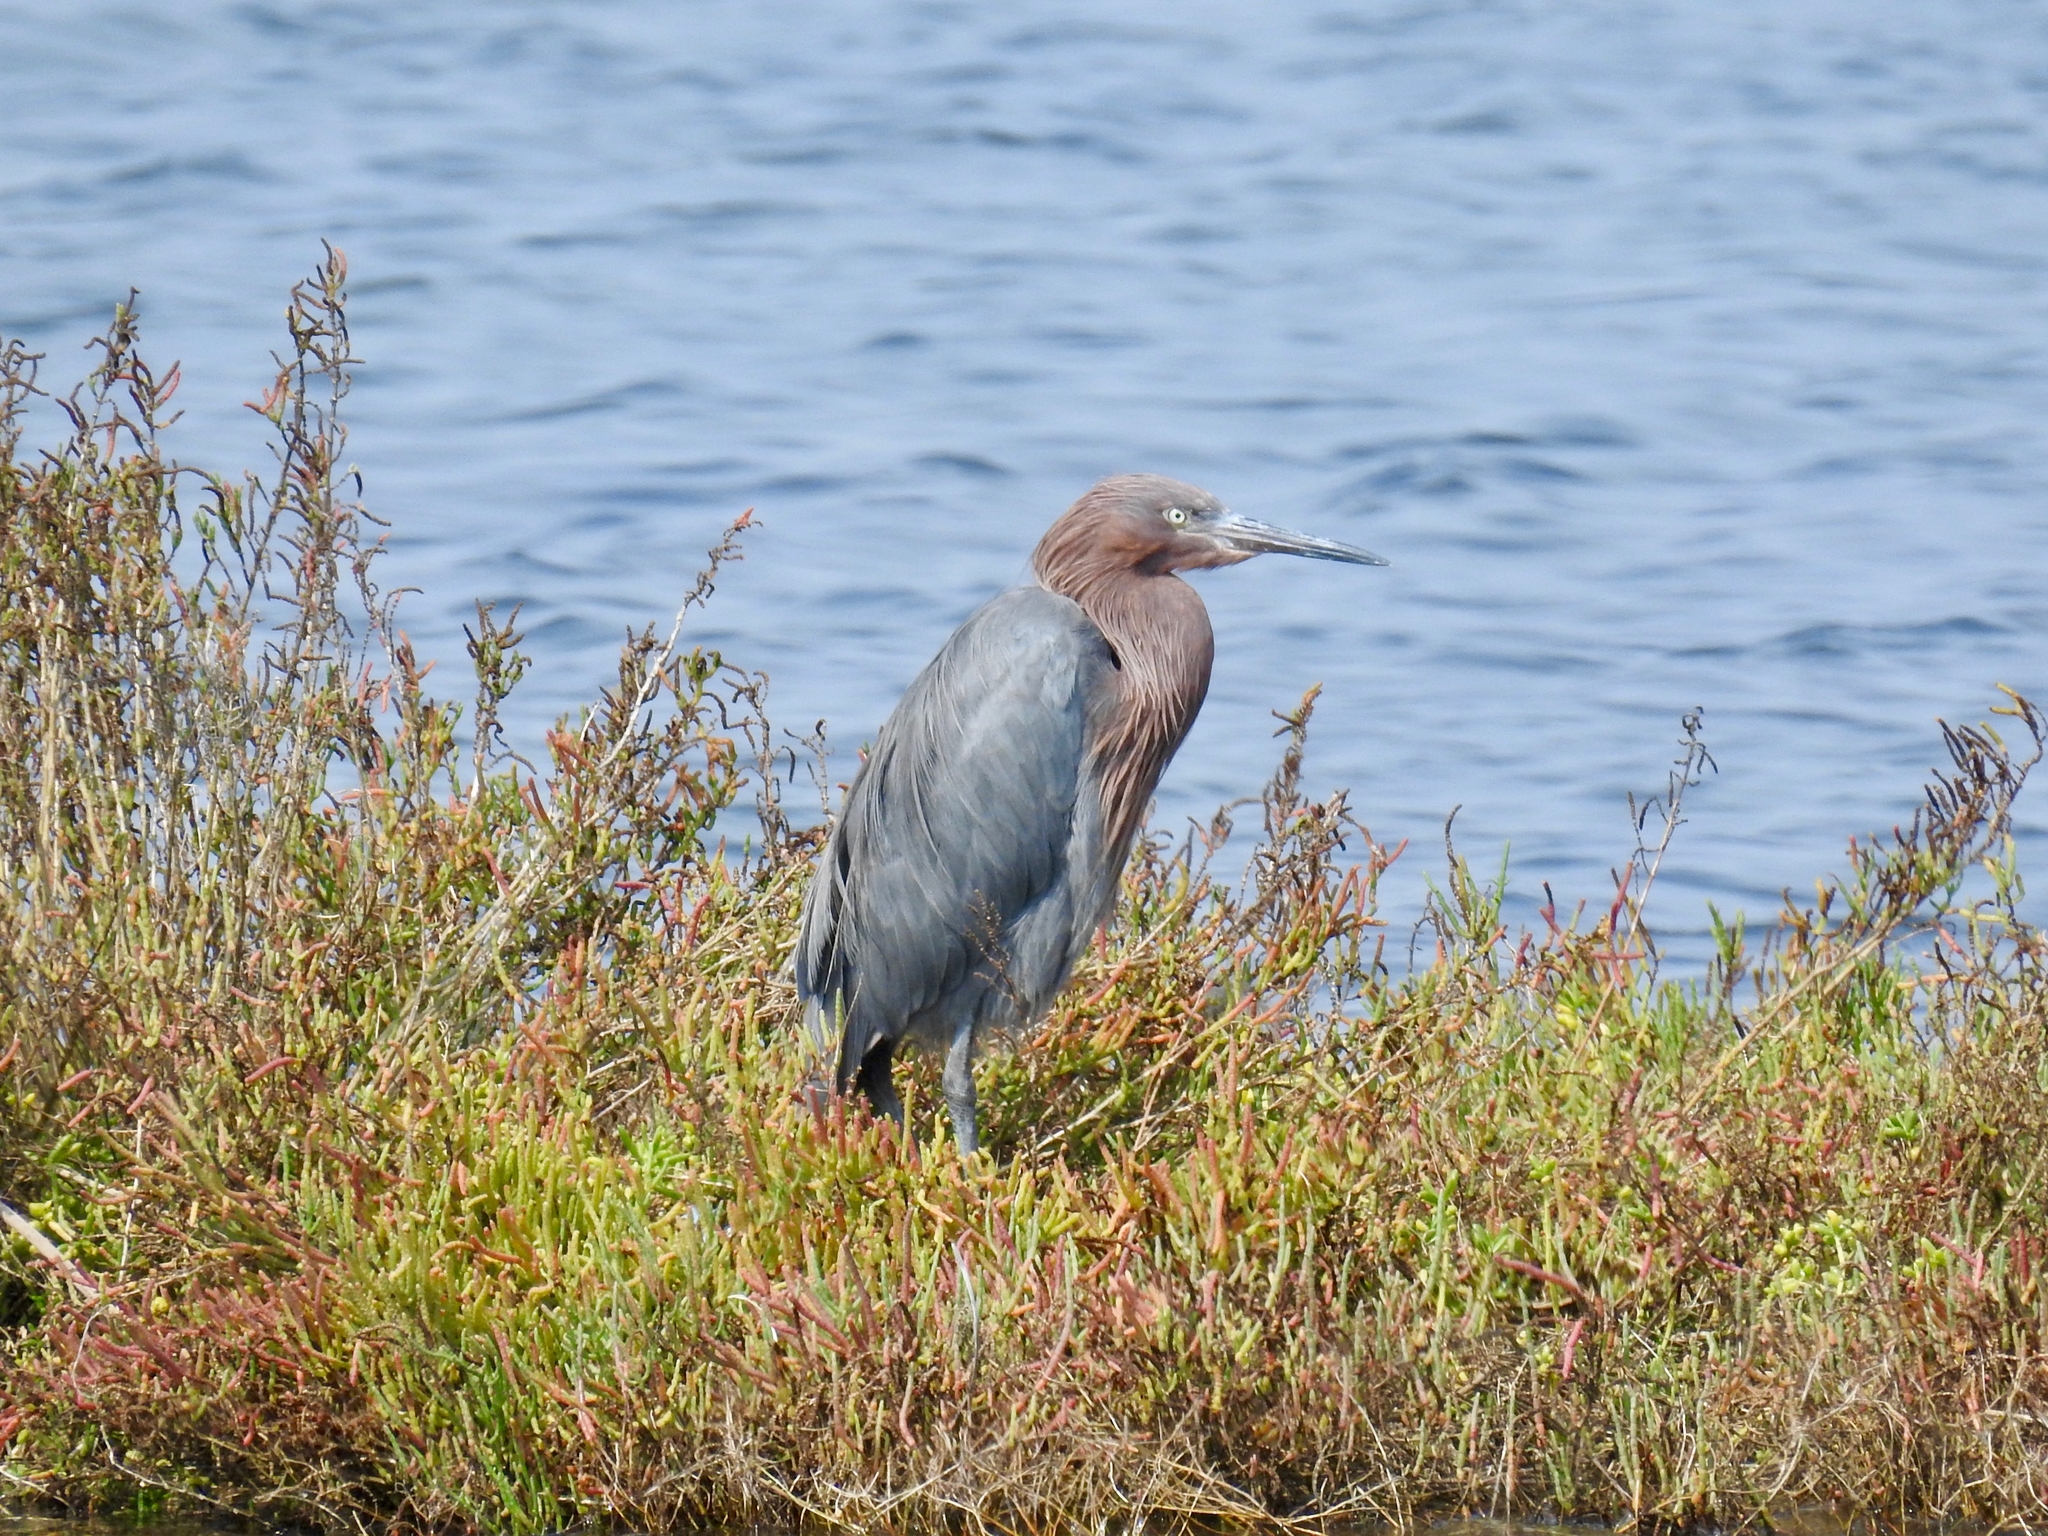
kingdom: Animalia
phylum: Chordata
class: Aves
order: Pelecaniformes
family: Ardeidae
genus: Egretta
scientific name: Egretta rufescens
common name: Reddish egret
